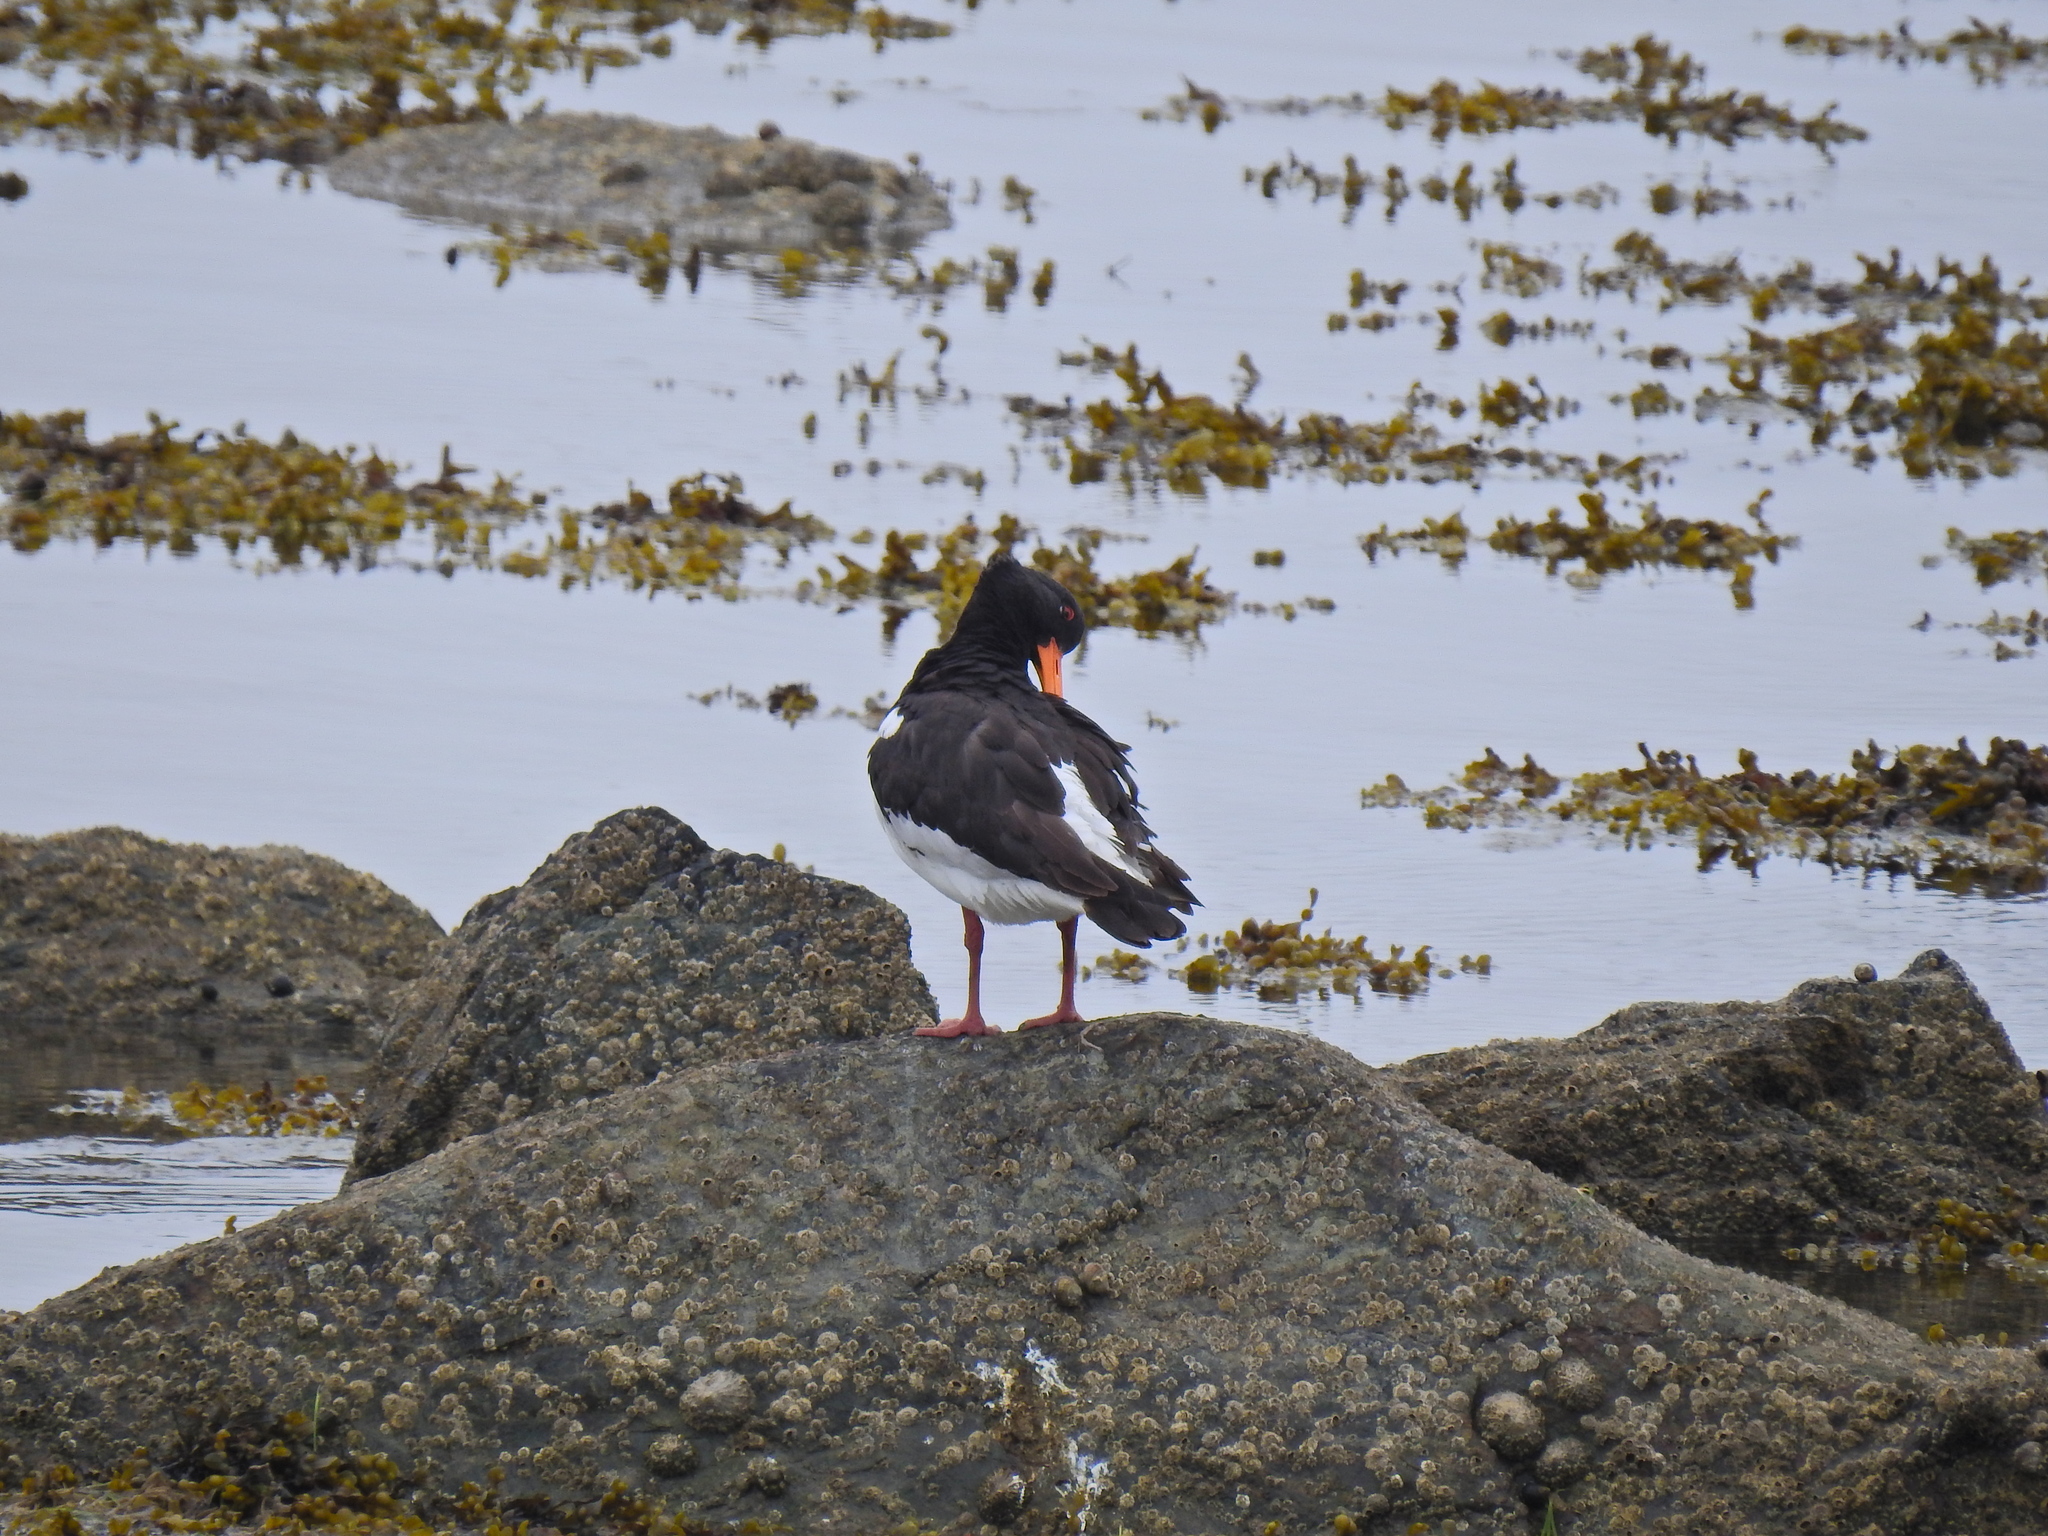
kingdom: Animalia
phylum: Chordata
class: Aves
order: Charadriiformes
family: Haematopodidae
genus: Haematopus
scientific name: Haematopus ostralegus
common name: Eurasian oystercatcher
